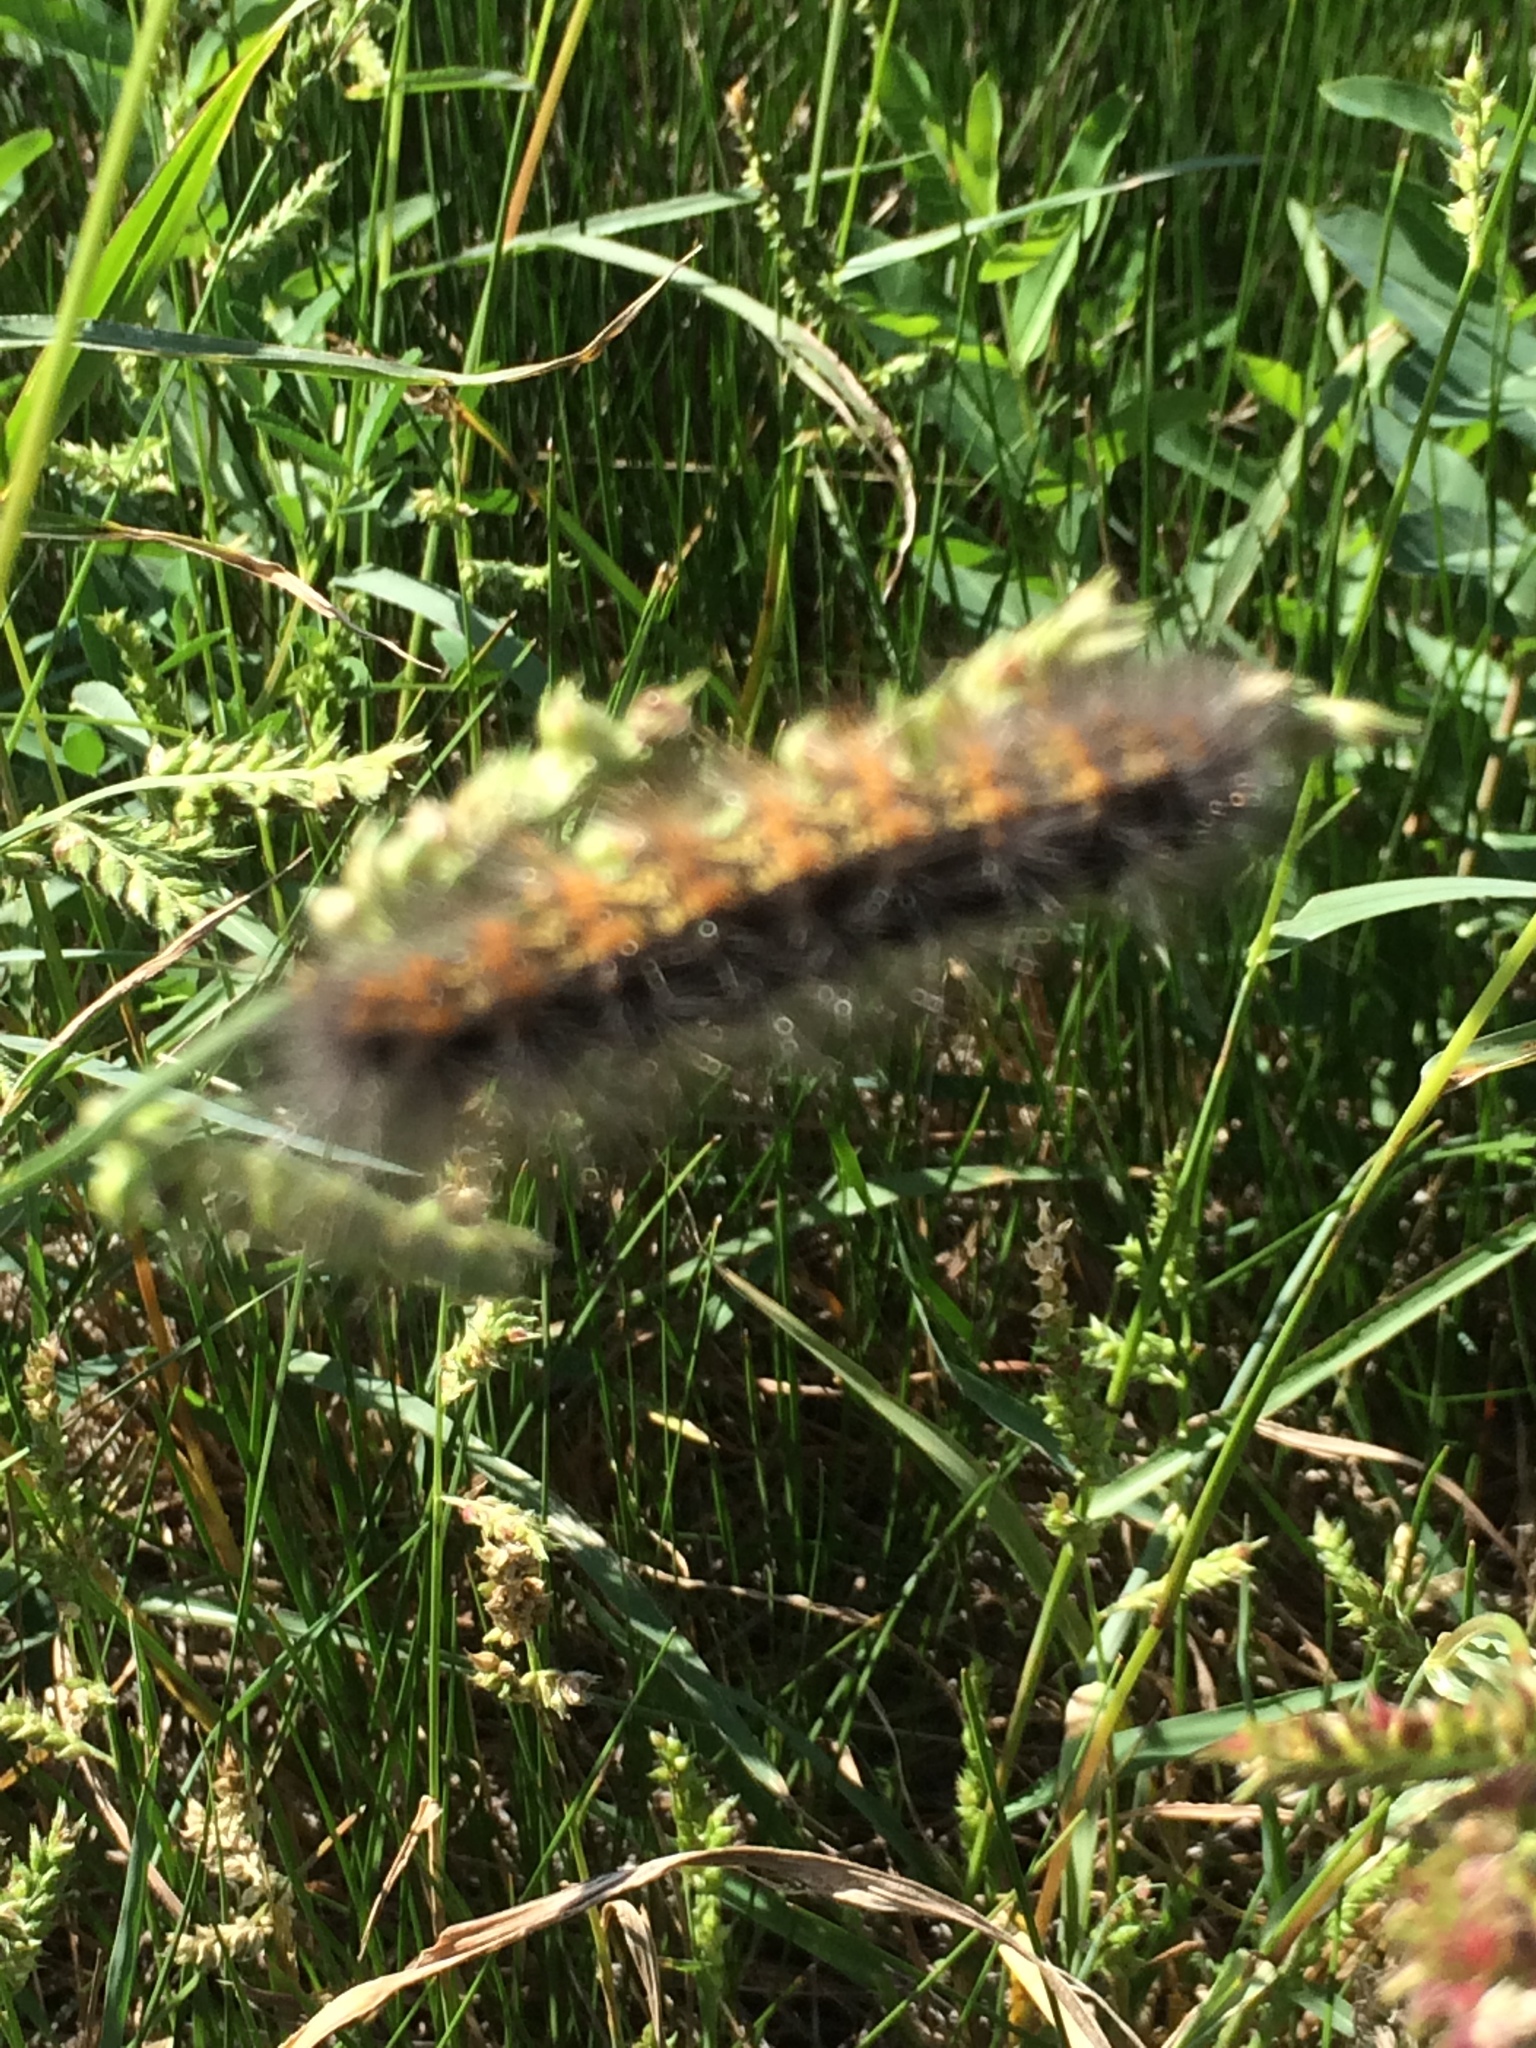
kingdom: Animalia
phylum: Arthropoda
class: Insecta
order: Lepidoptera
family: Erebidae
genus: Estigmene
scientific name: Estigmene acrea
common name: Salt marsh moth
